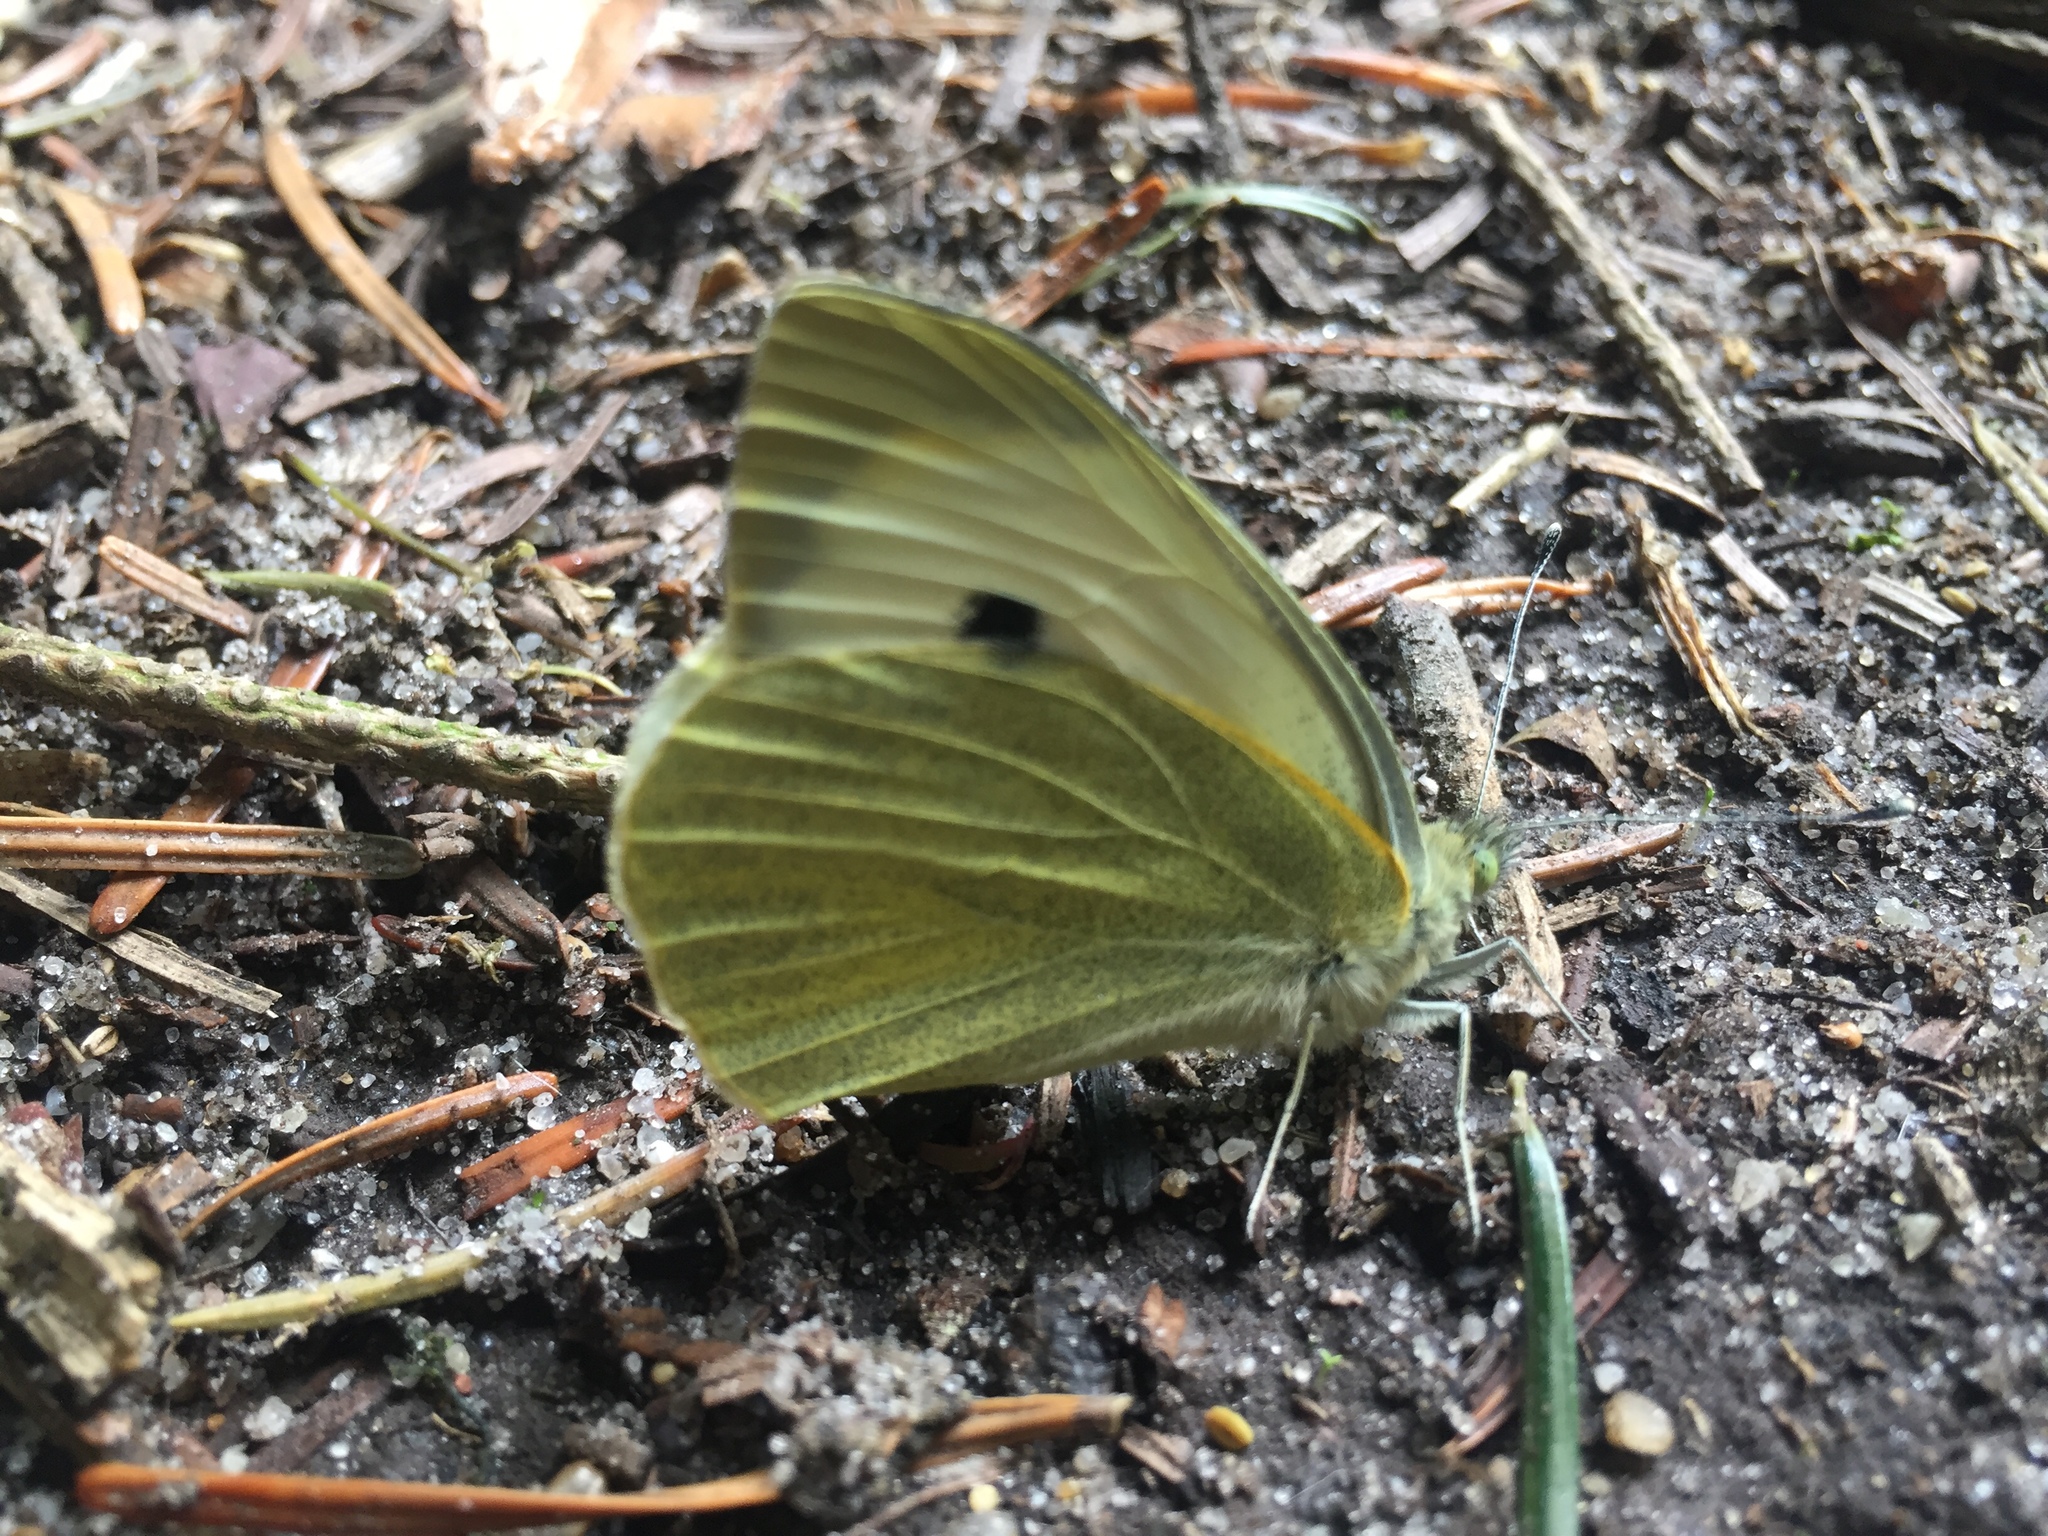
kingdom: Animalia
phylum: Arthropoda
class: Insecta
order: Lepidoptera
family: Pieridae
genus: Pieris
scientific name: Pieris brassicae
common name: Large white
